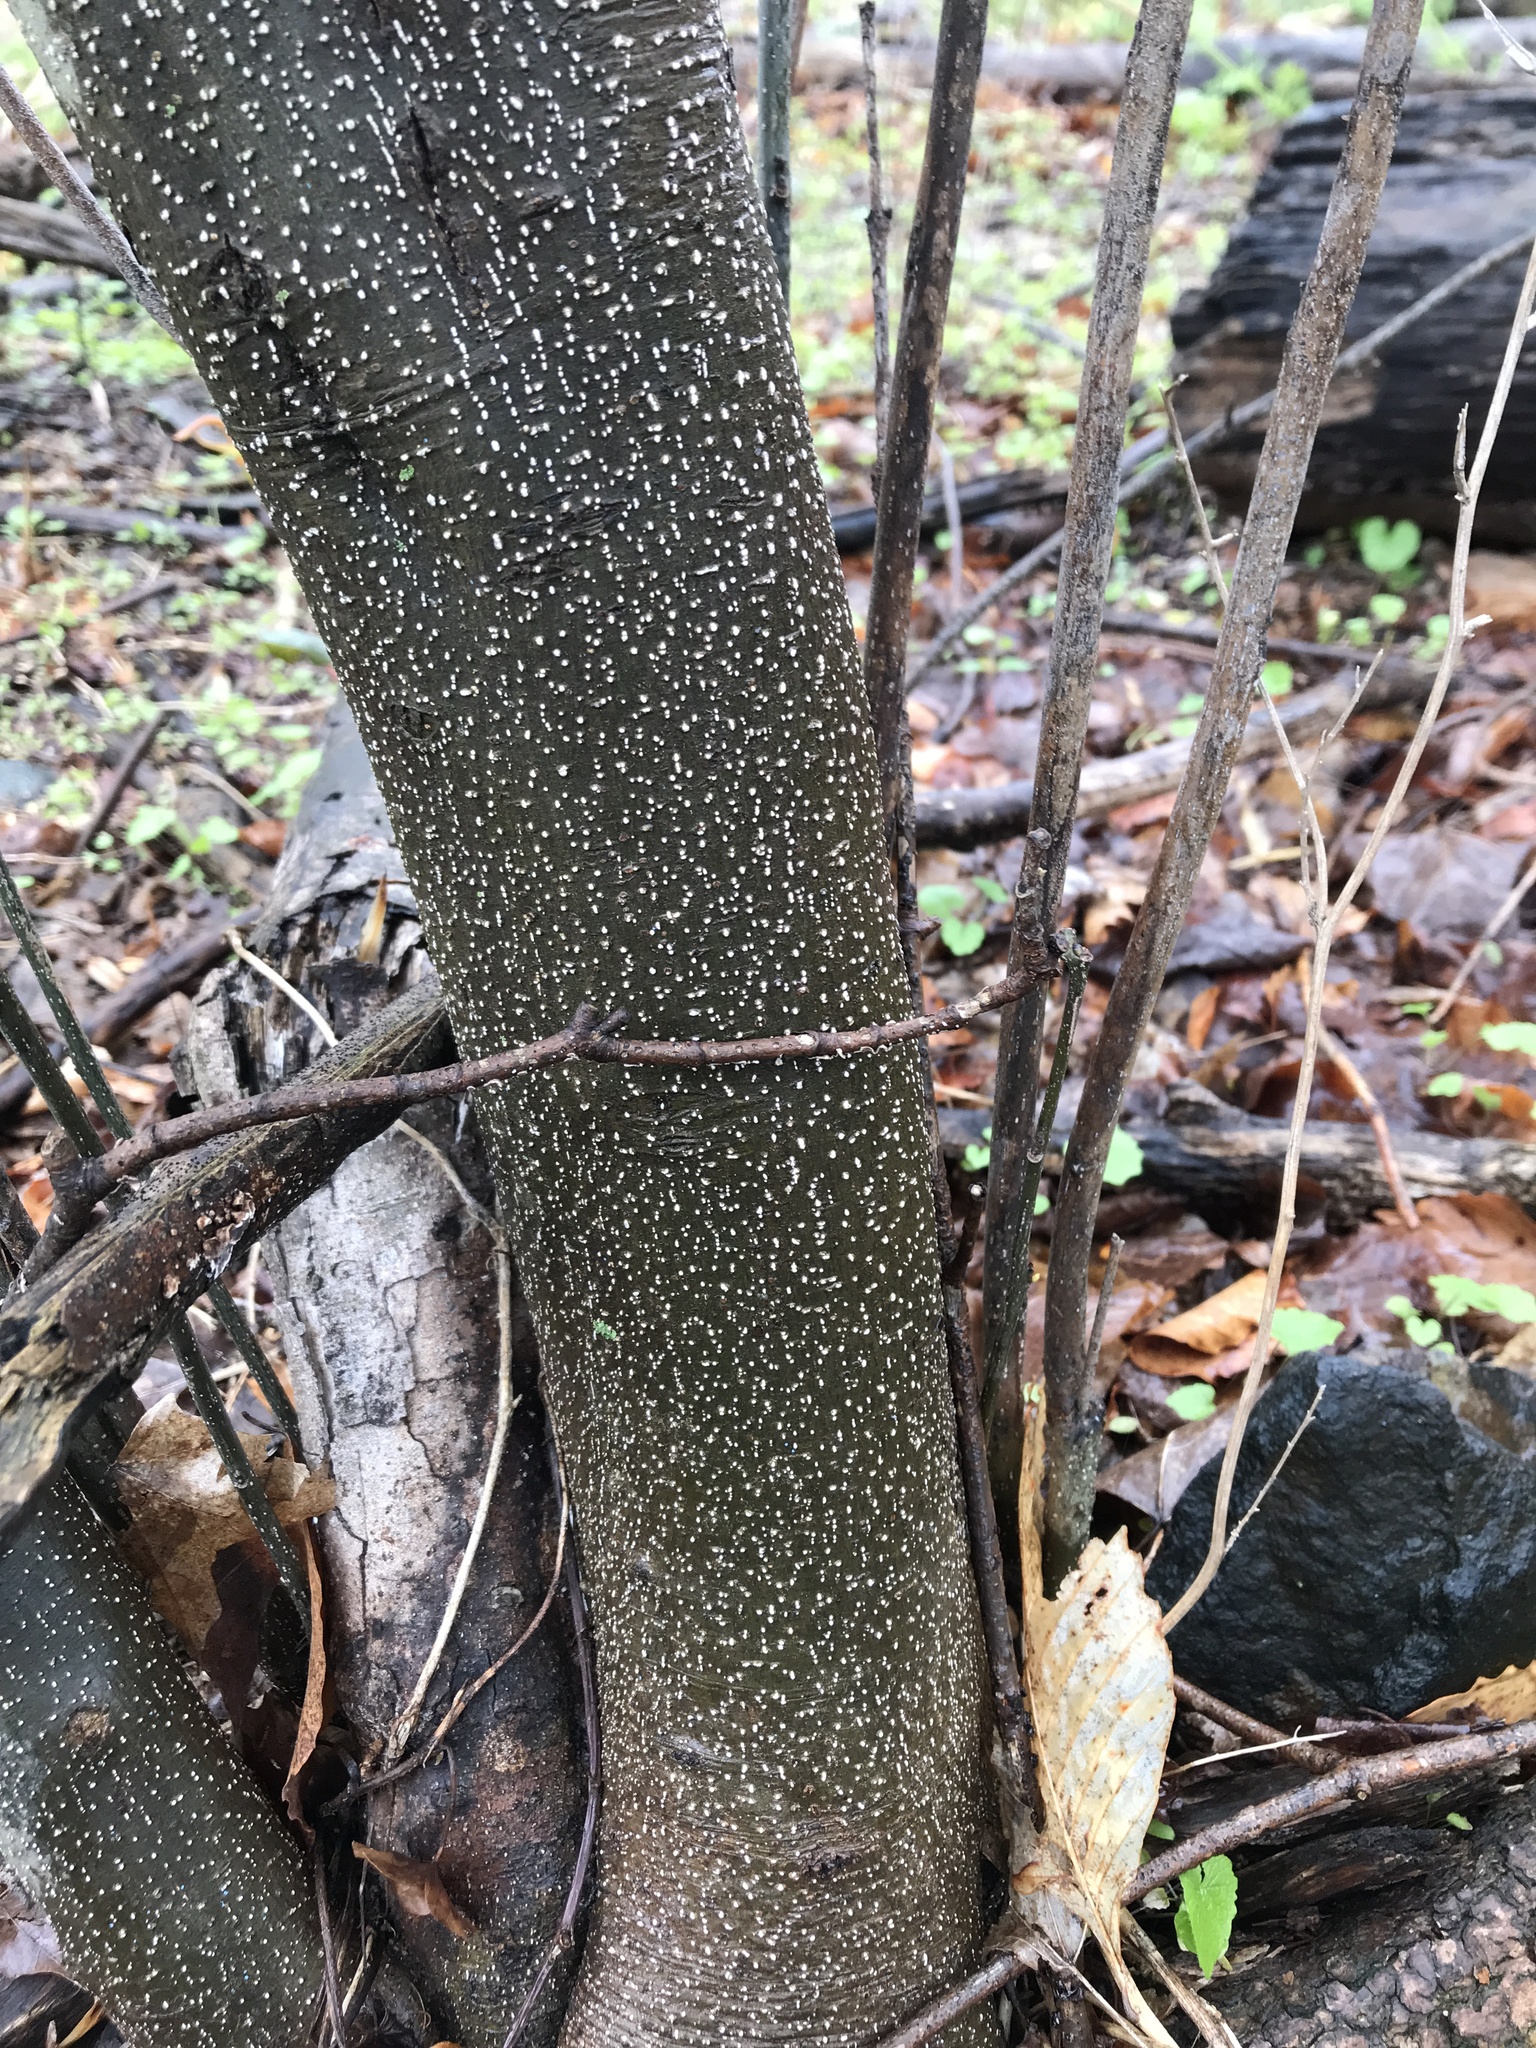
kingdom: Plantae
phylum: Tracheophyta
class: Magnoliopsida
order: Laurales
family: Lauraceae
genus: Lindera
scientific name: Lindera benzoin
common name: Spicebush
